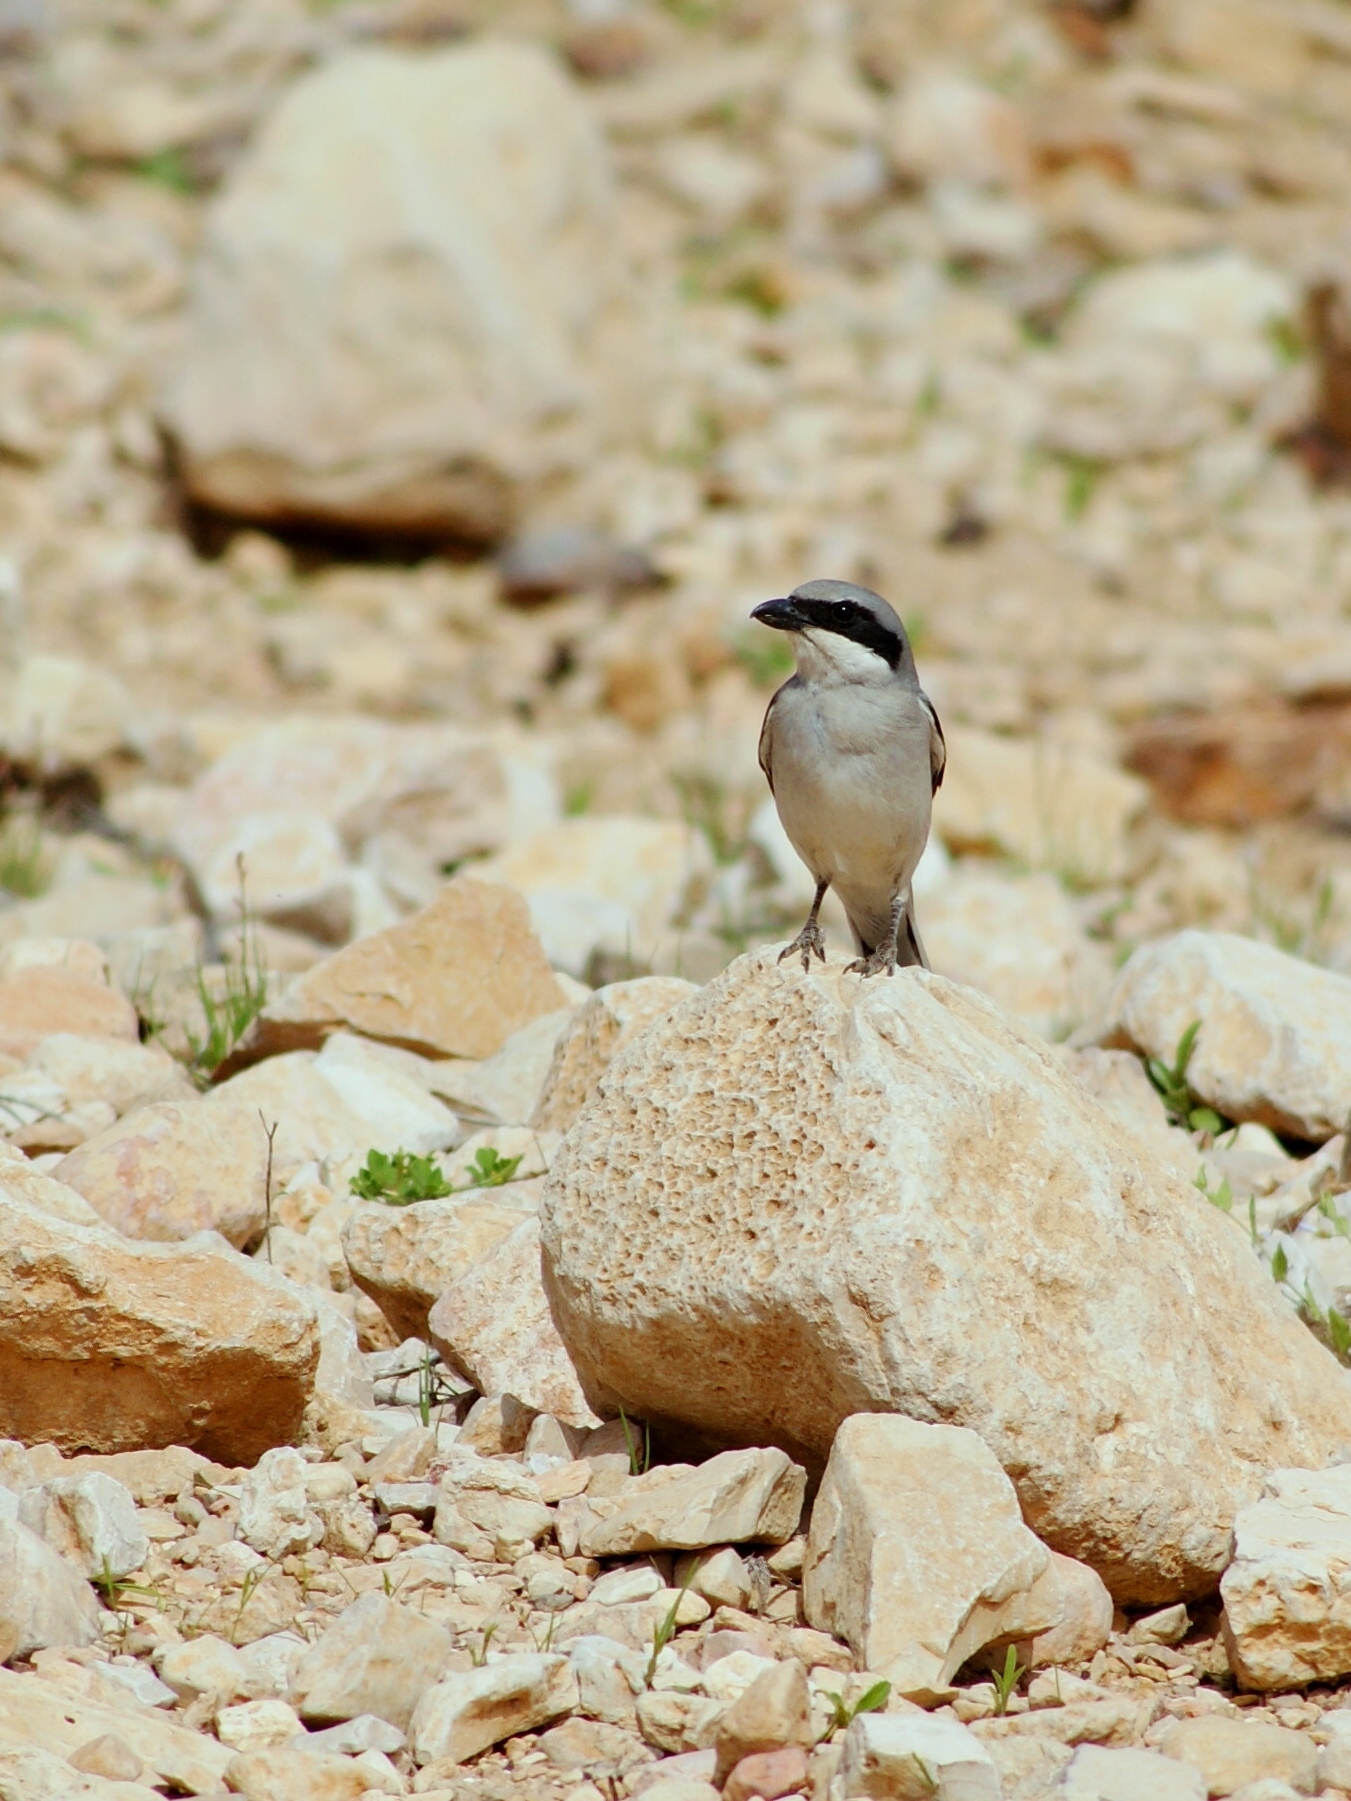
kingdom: Animalia
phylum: Chordata
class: Aves
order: Passeriformes
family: Laniidae
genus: Lanius
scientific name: Lanius excubitor
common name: Great grey shrike
